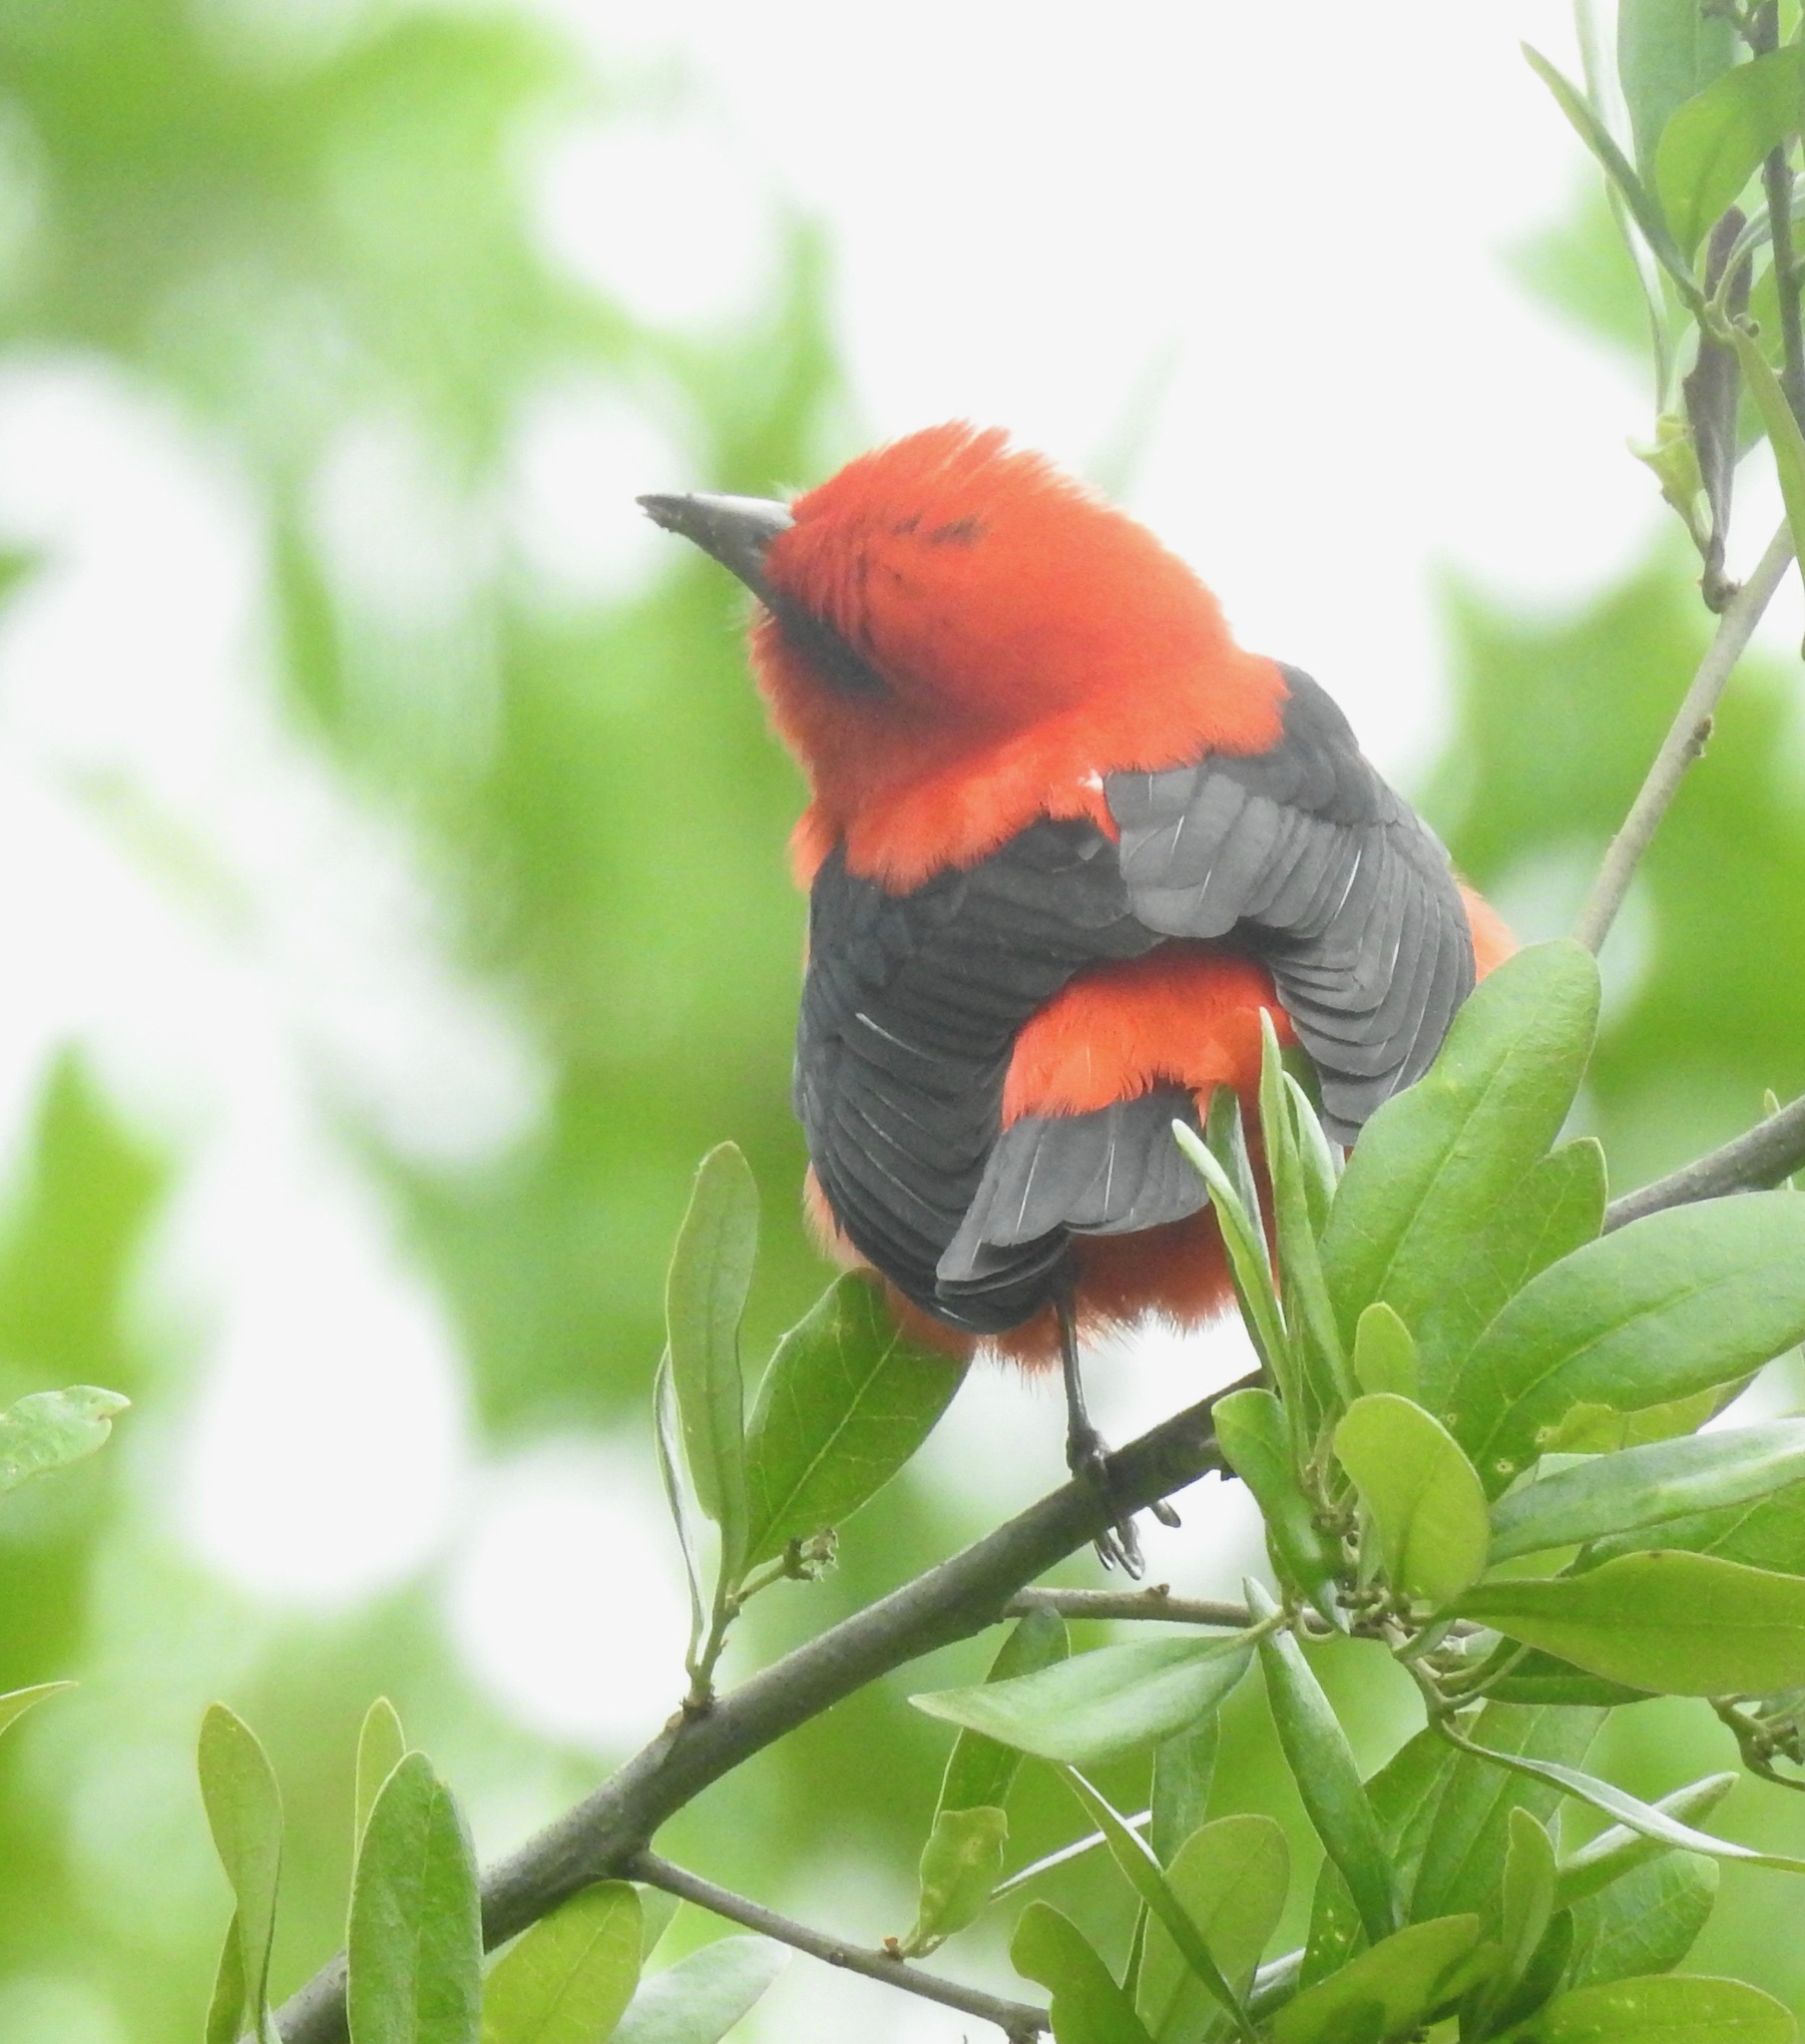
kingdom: Animalia
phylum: Chordata
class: Aves
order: Passeriformes
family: Cardinalidae
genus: Piranga
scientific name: Piranga olivacea
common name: Scarlet tanager
